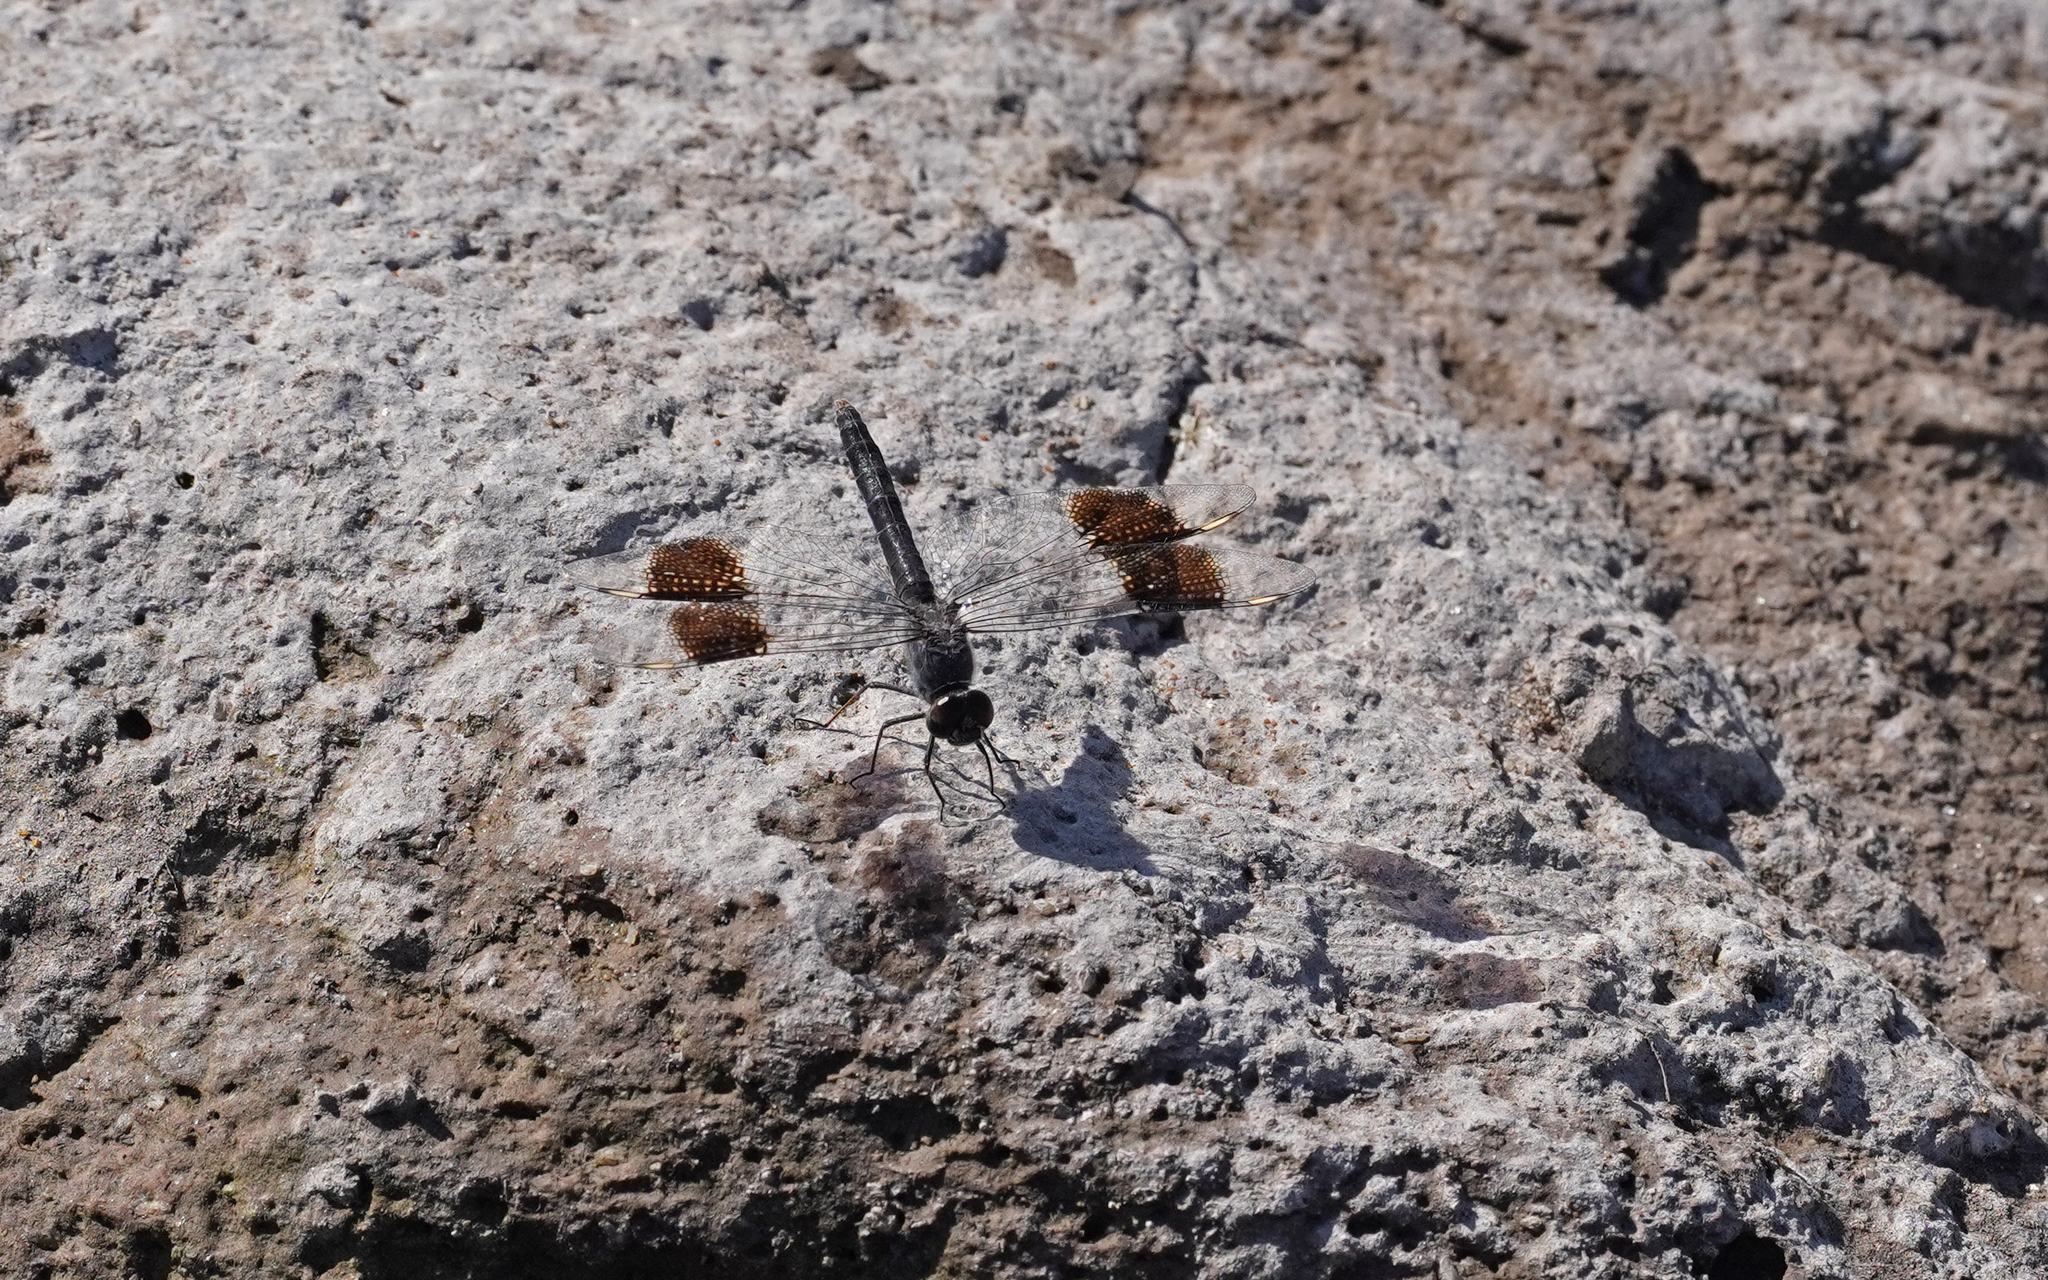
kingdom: Animalia
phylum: Arthropoda
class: Insecta
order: Odonata
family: Libellulidae
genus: Brachythemis
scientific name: Brachythemis impartita
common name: Banded groundling
